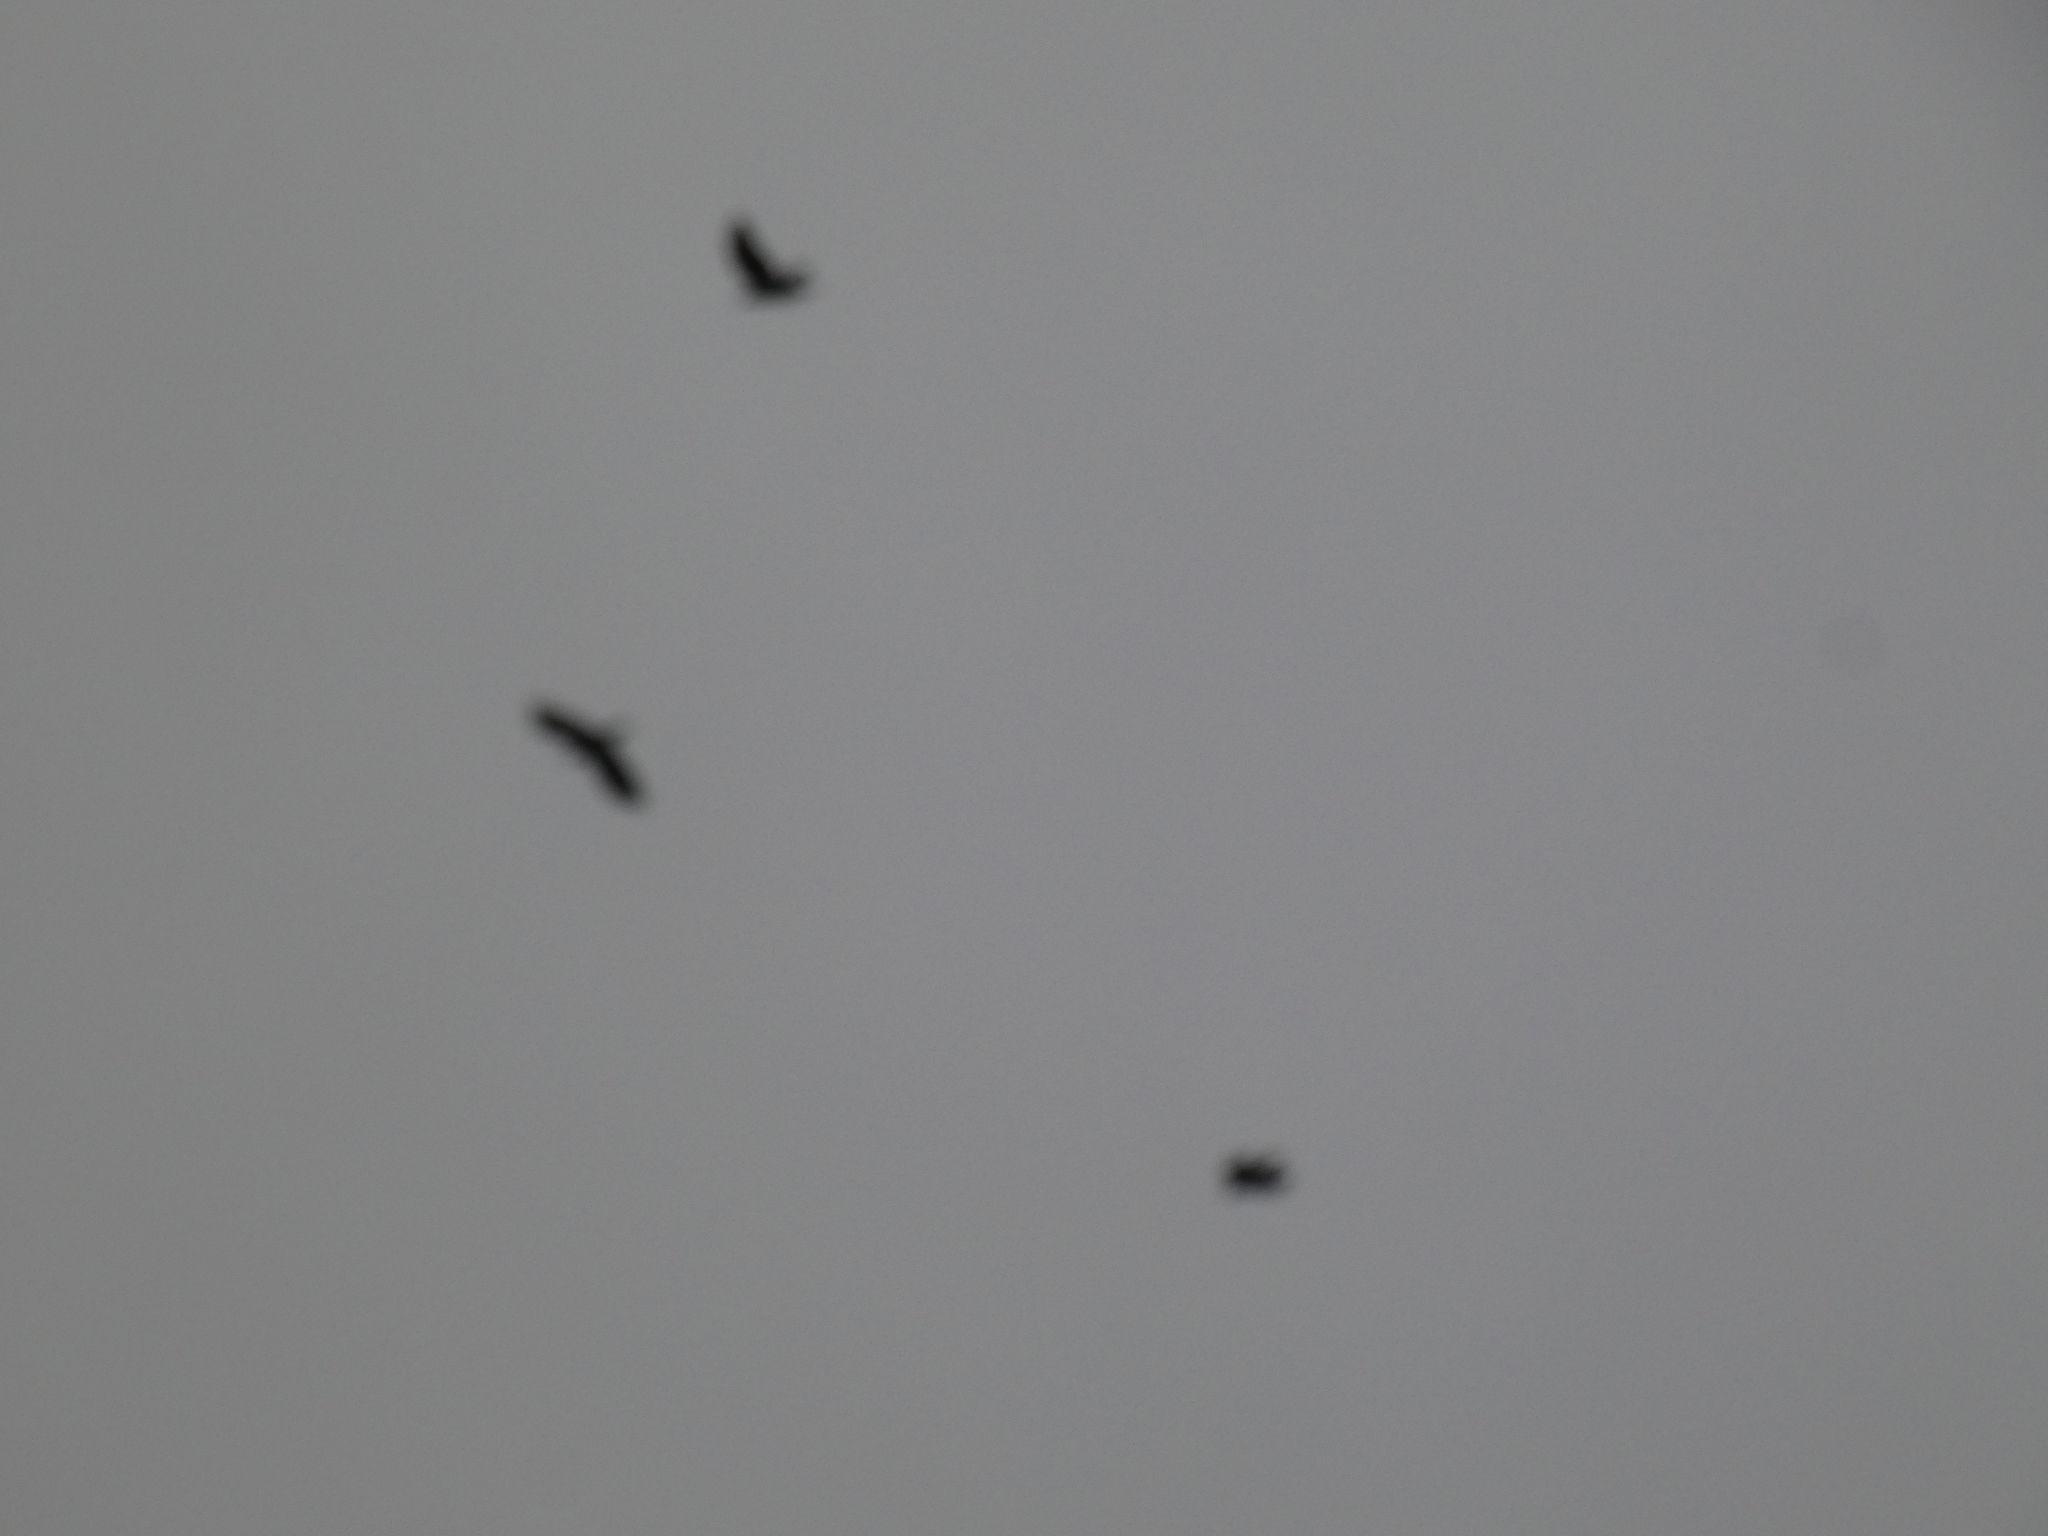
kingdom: Animalia
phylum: Chordata
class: Aves
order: Passeriformes
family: Corvidae
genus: Corvus
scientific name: Corvus brachyrhynchos
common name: American crow
